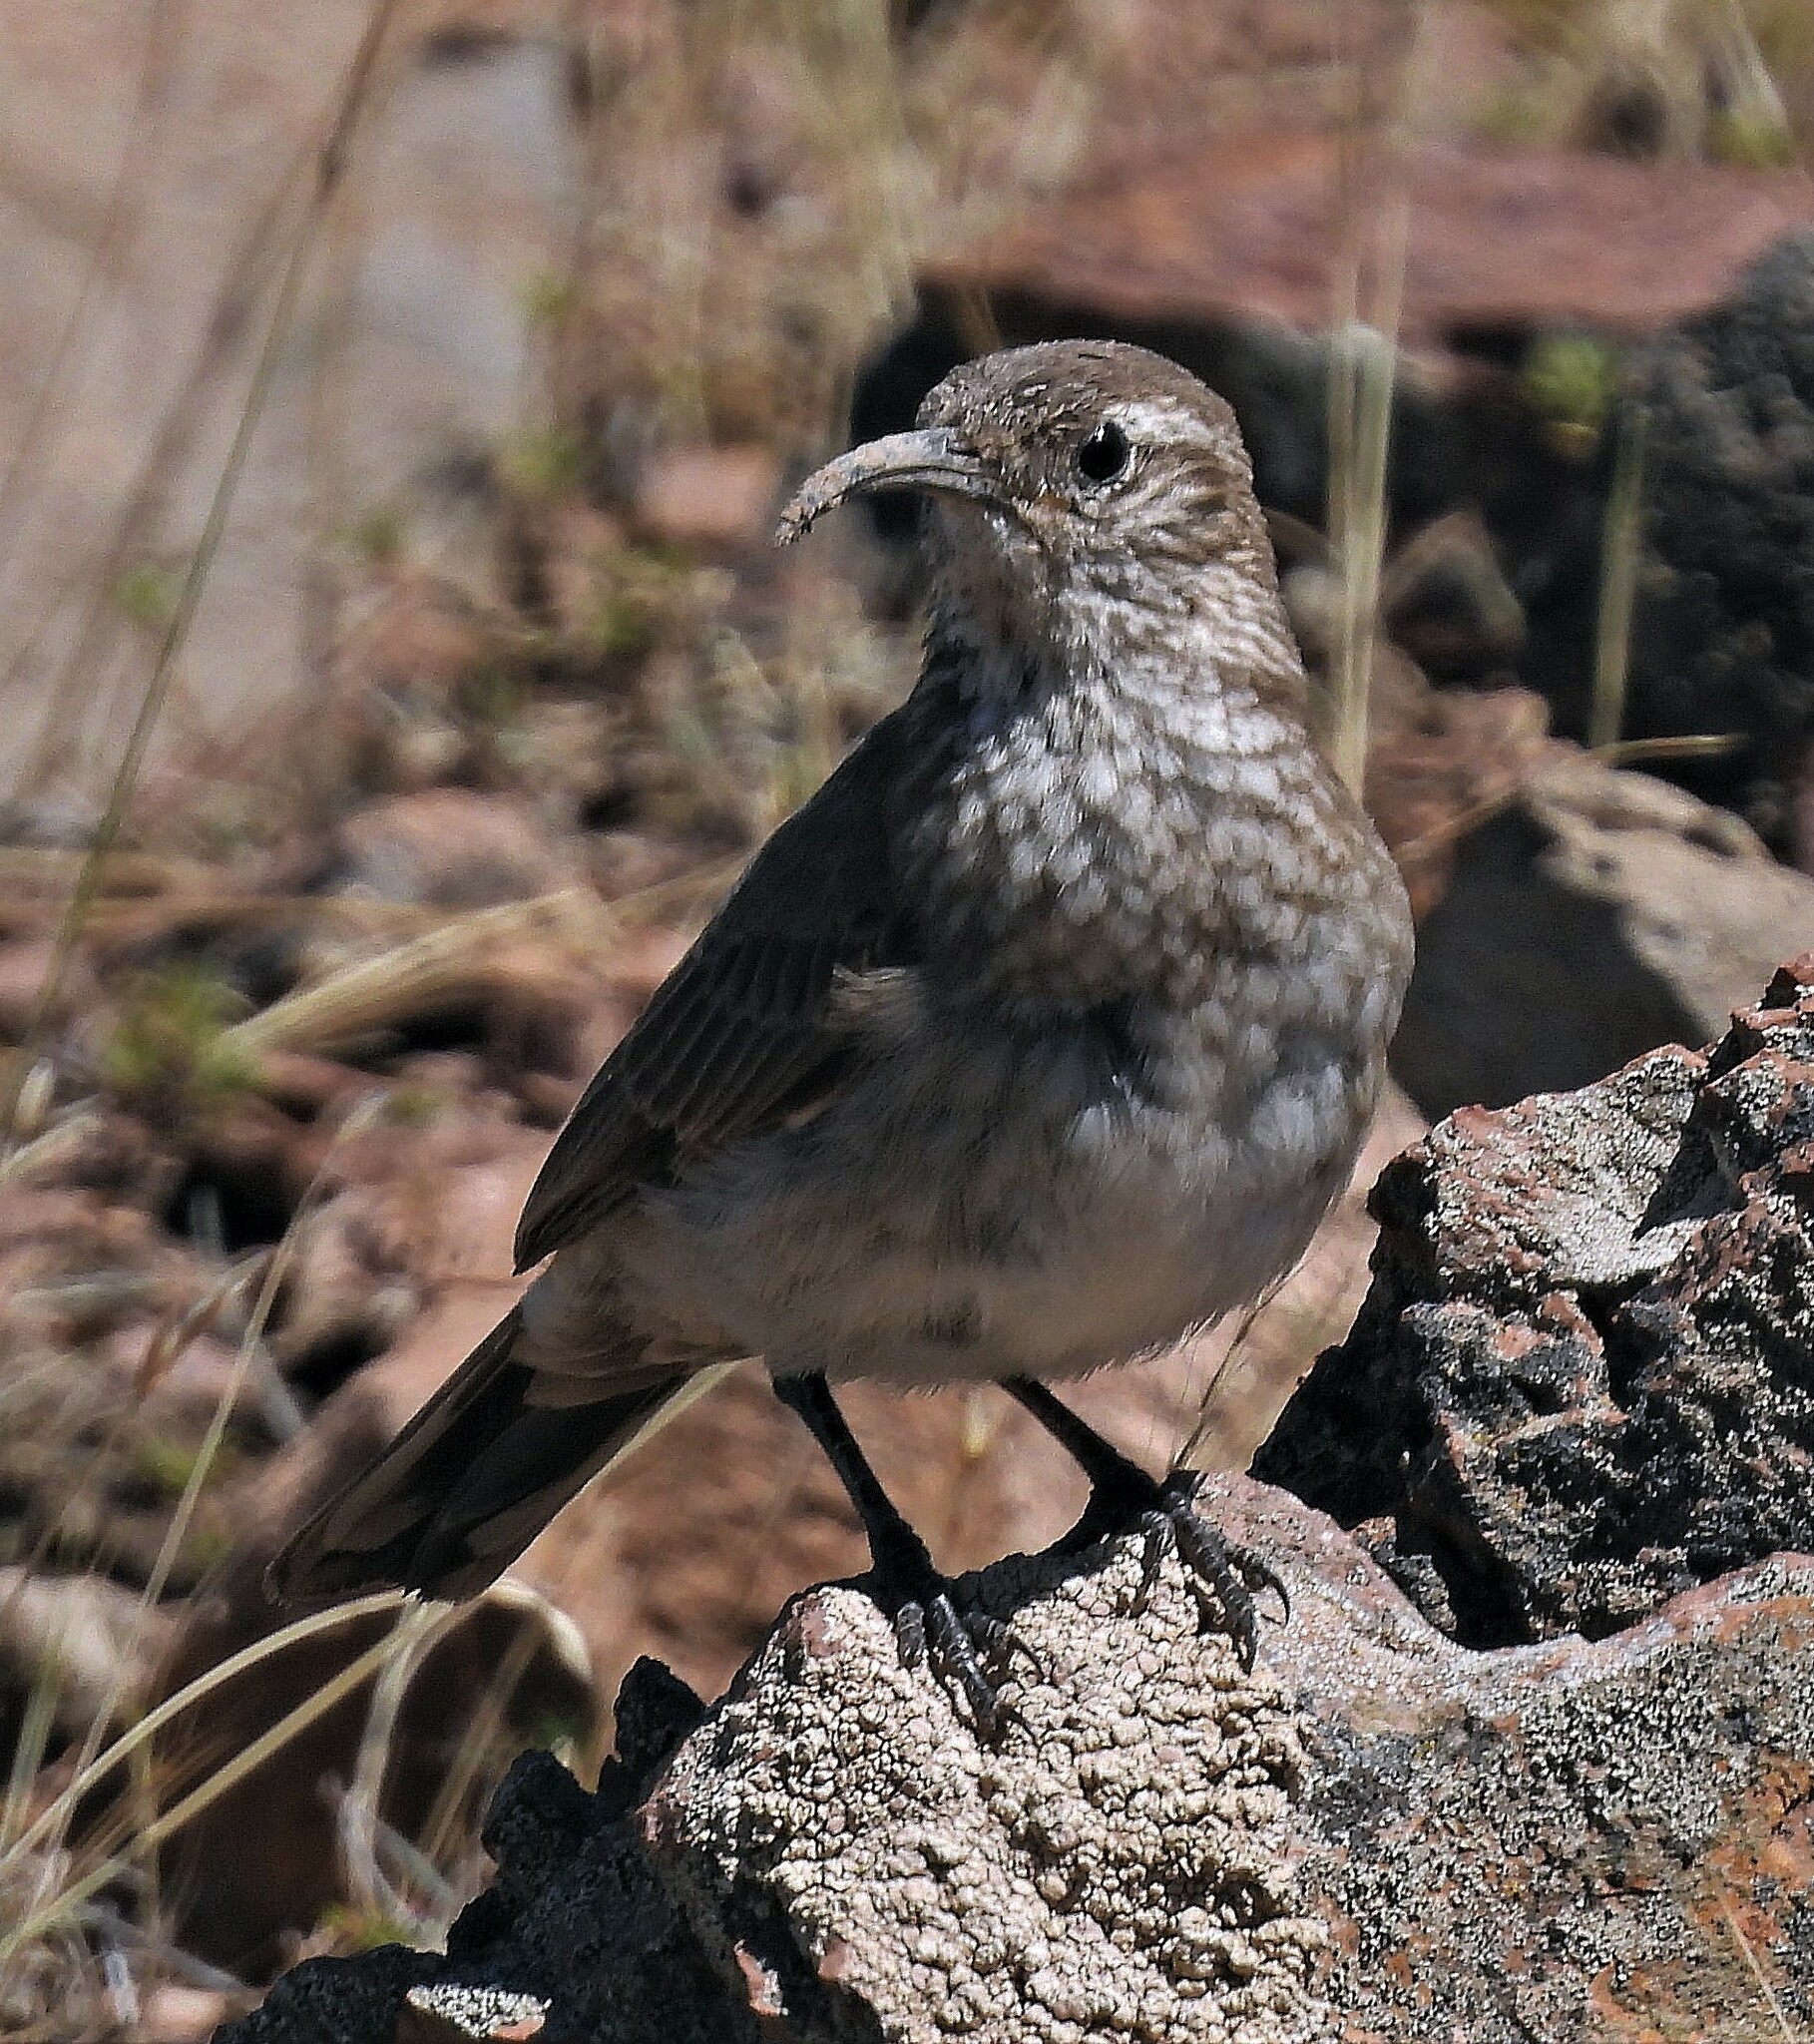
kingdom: Animalia
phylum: Chordata
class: Aves
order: Passeriformes
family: Furnariidae
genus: Upucerthia
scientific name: Upucerthia dumetaria
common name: Scale-throated earthcreeper
